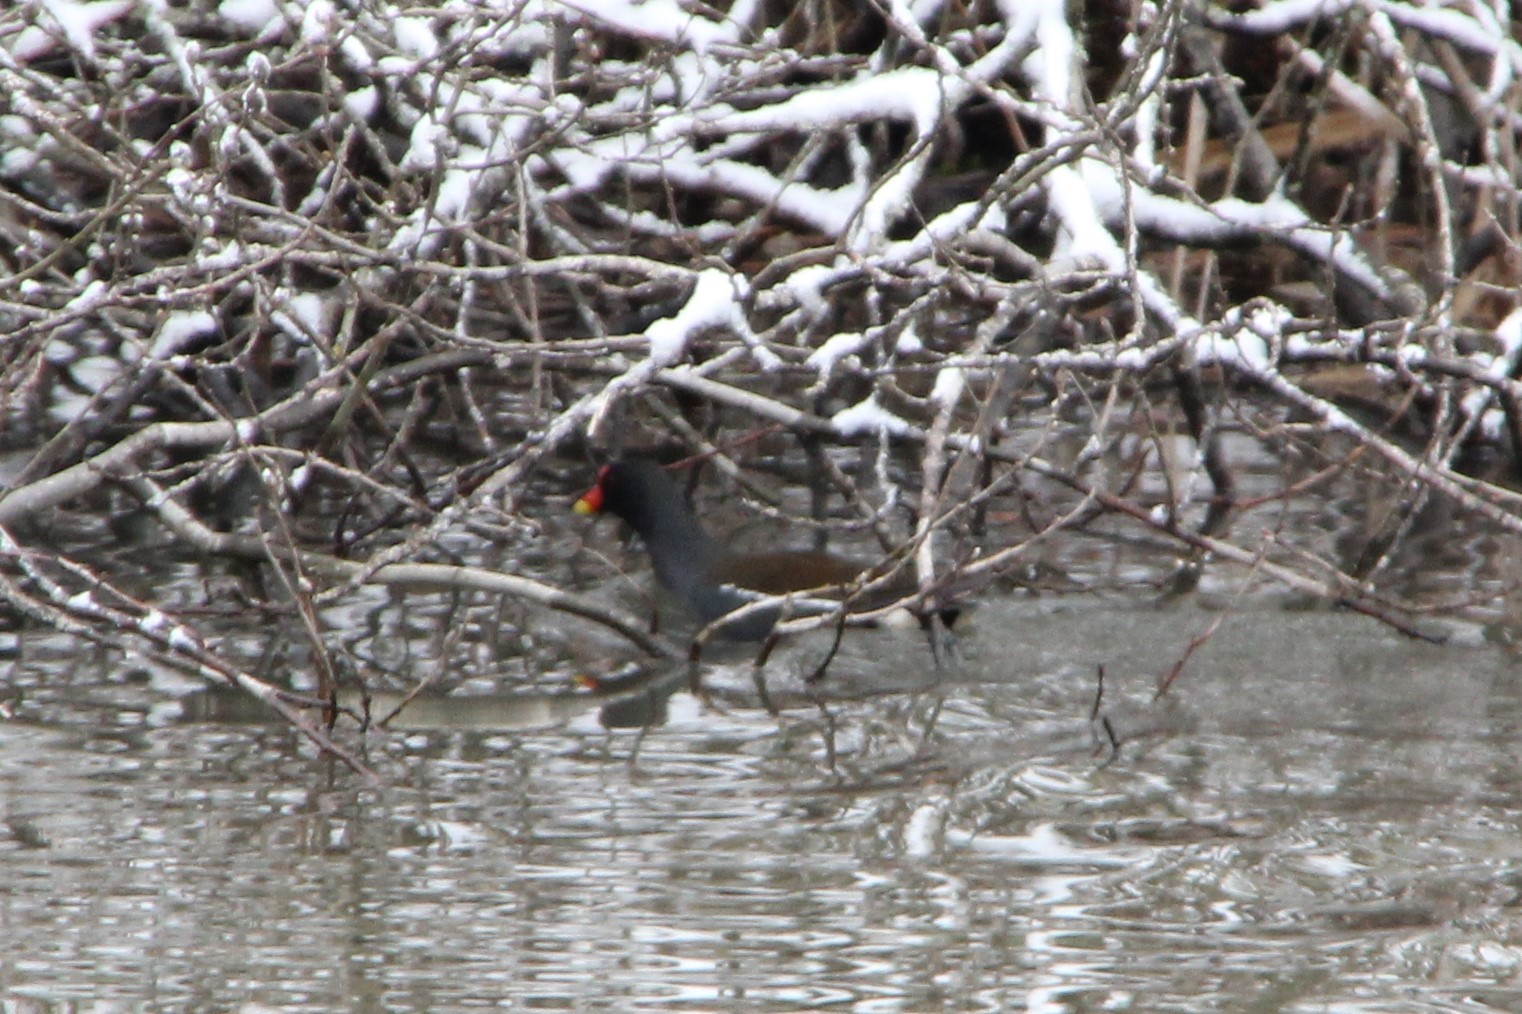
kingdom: Animalia
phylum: Chordata
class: Aves
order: Gruiformes
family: Rallidae
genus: Gallinula
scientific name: Gallinula chloropus
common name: Common moorhen
